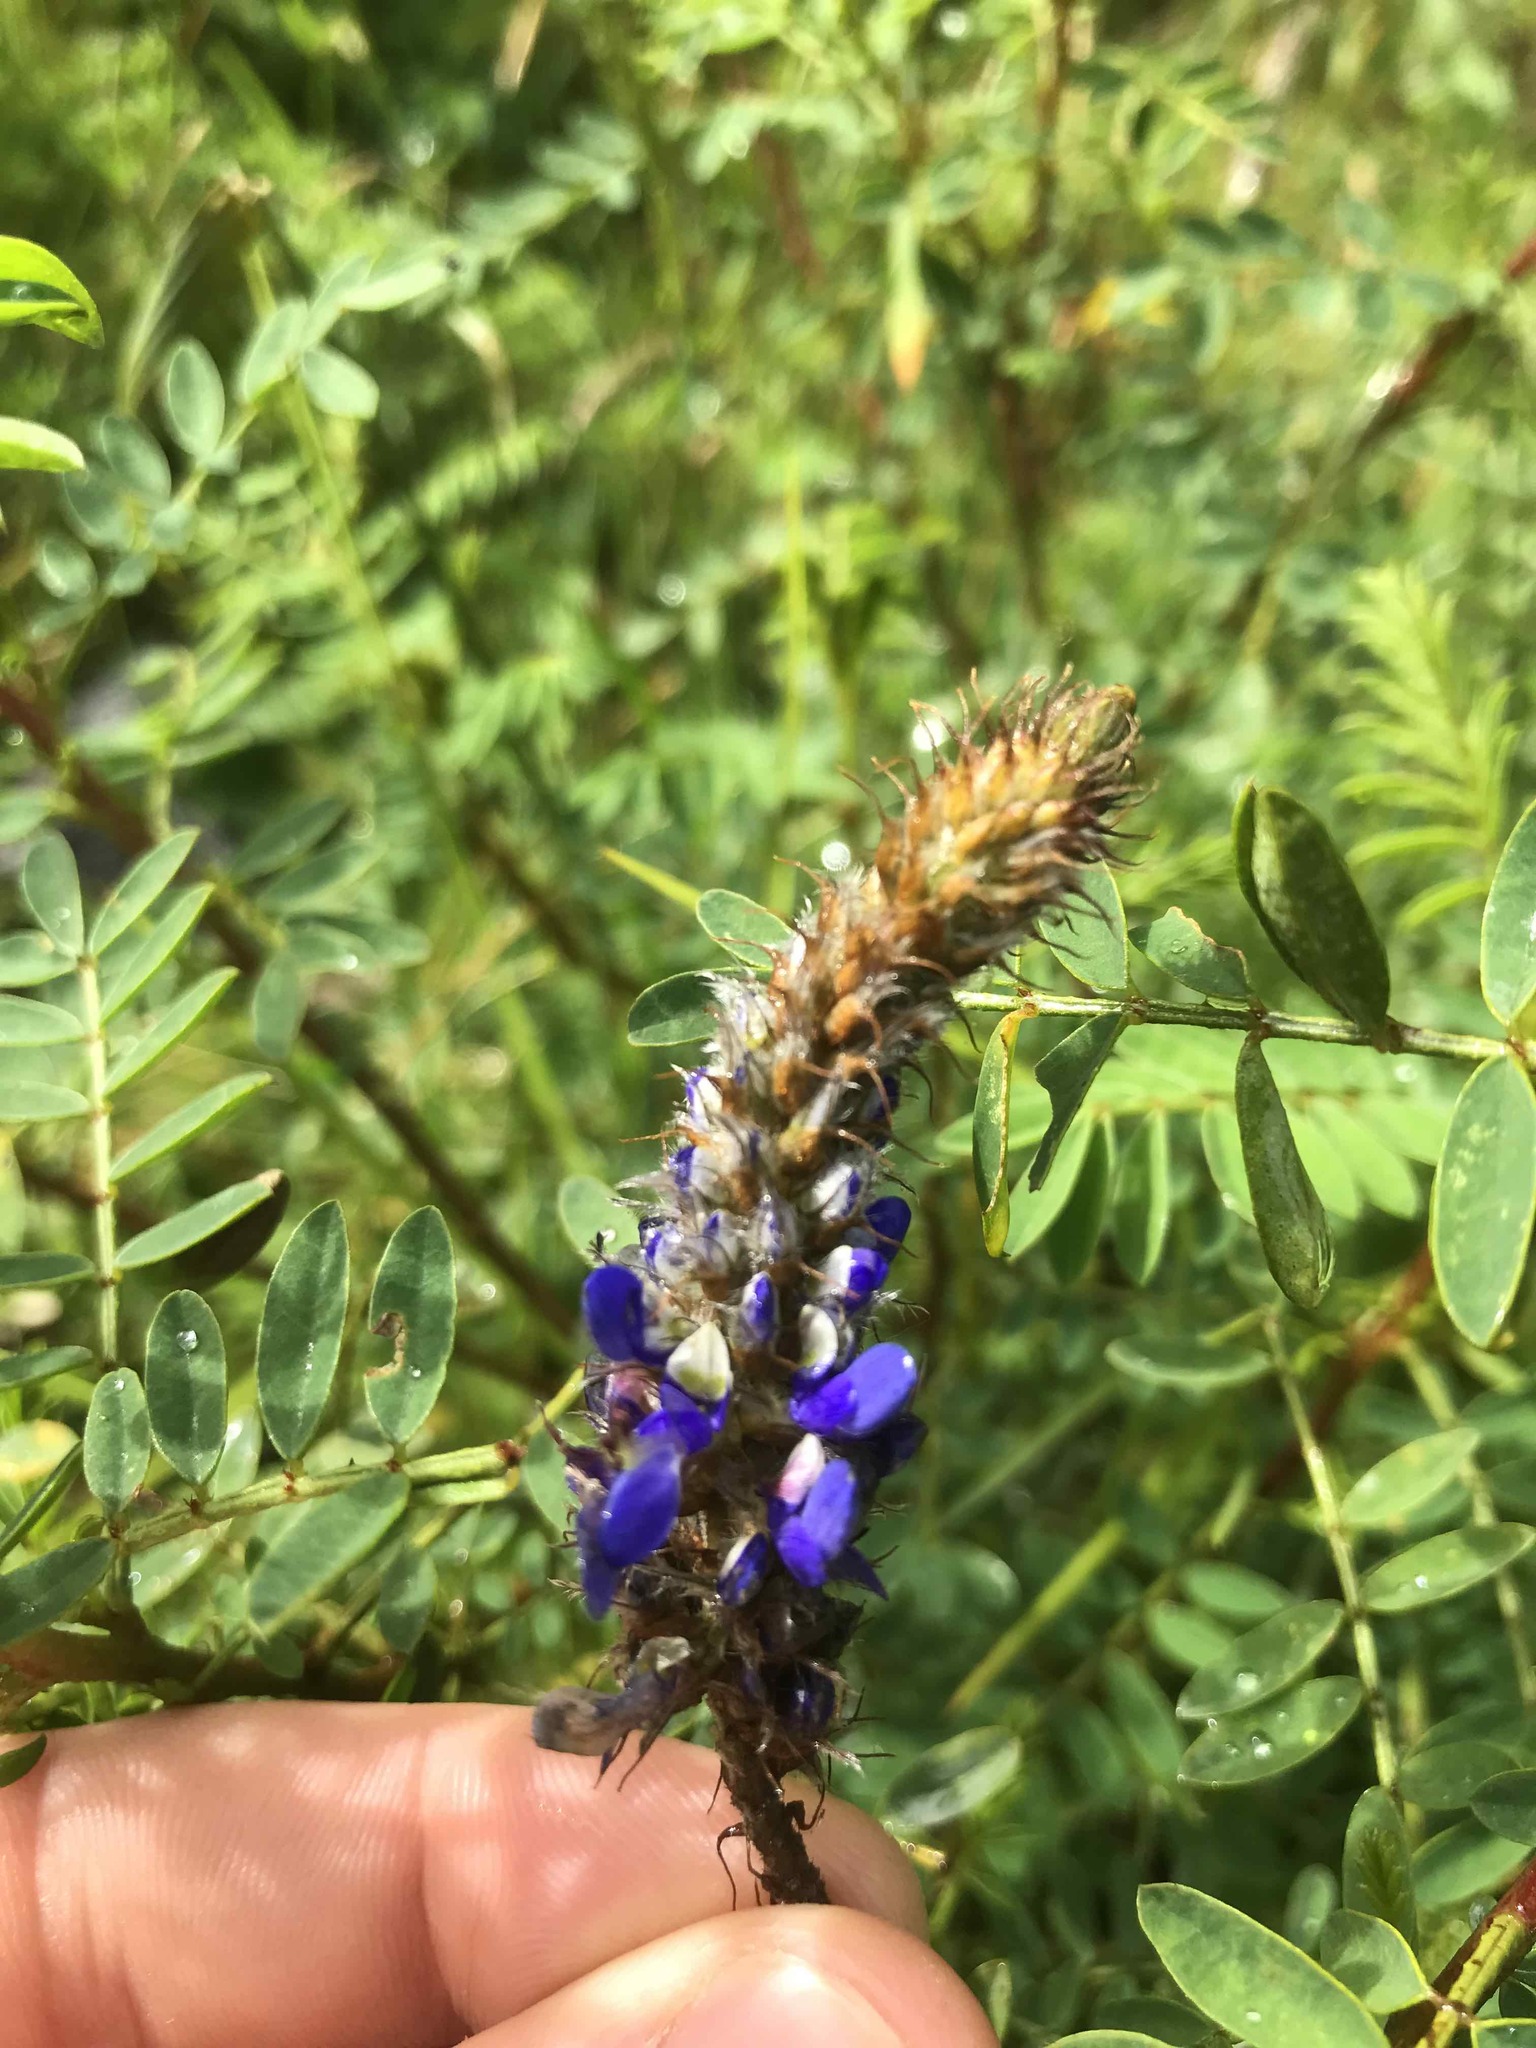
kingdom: Plantae
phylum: Tracheophyta
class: Magnoliopsida
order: Fabales
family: Fabaceae
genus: Dalea
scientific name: Dalea coerulea
